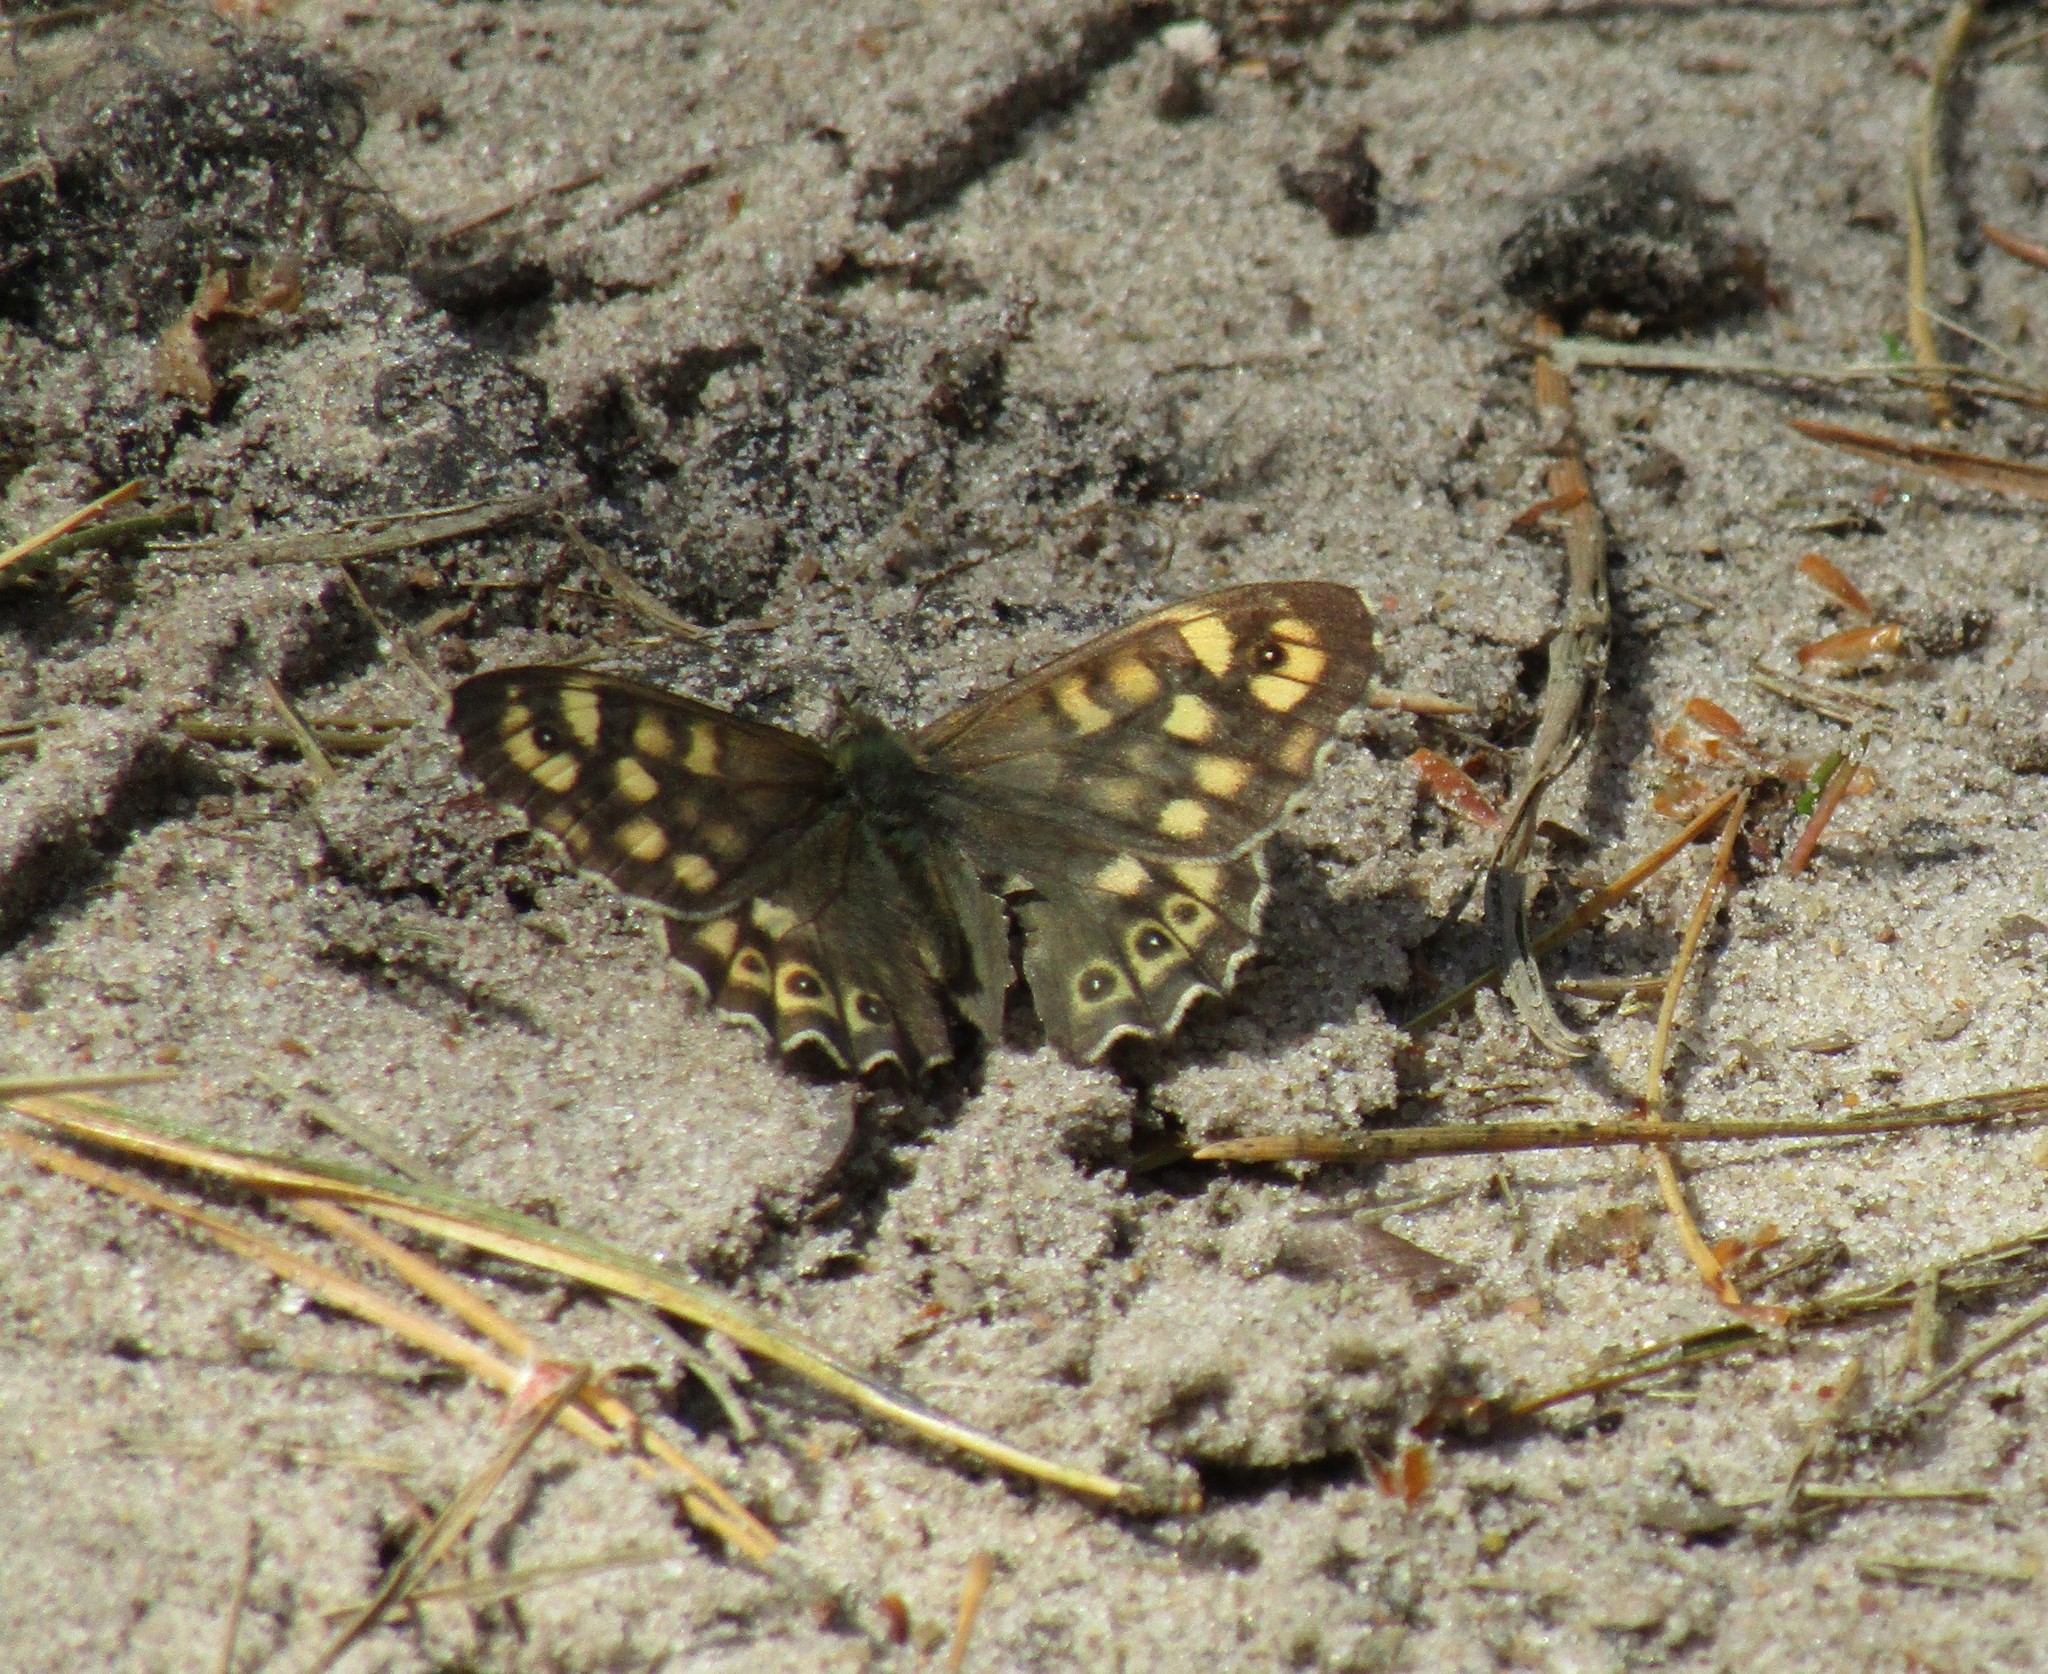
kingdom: Animalia
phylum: Arthropoda
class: Insecta
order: Lepidoptera
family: Nymphalidae
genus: Pararge
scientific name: Pararge aegeria
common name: Speckled wood
